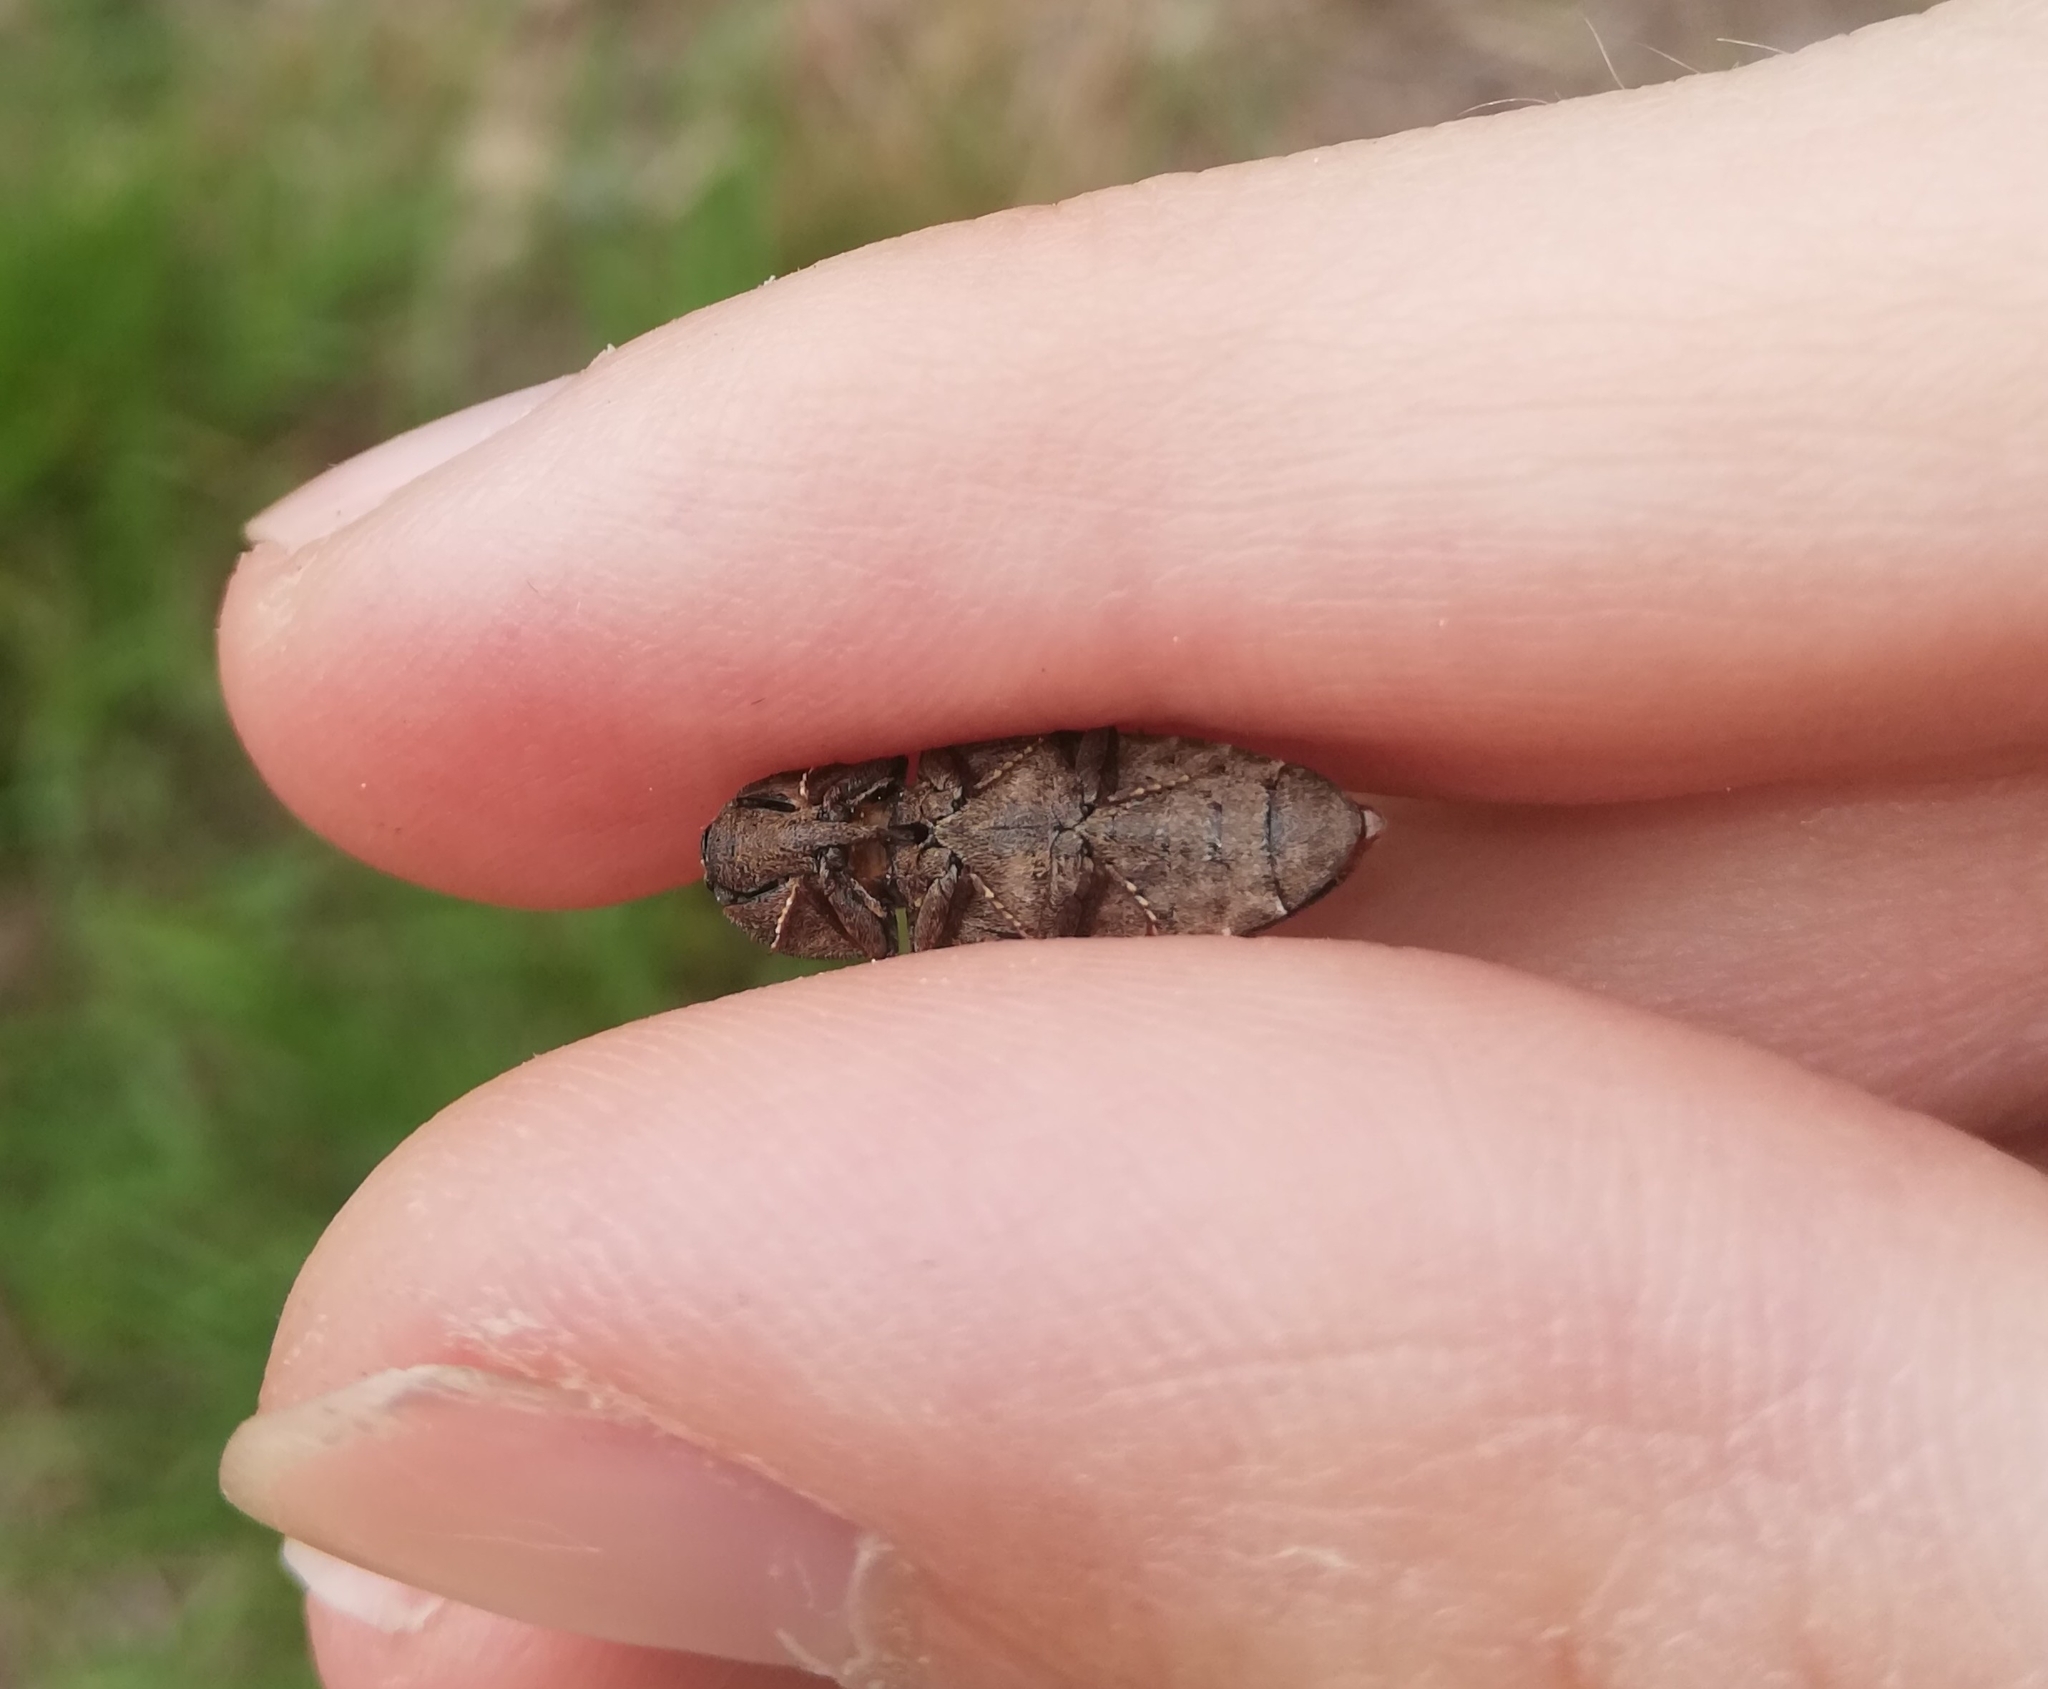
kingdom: Animalia
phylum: Arthropoda
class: Insecta
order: Coleoptera
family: Elateridae
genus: Agrypnus
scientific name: Agrypnus murinus
